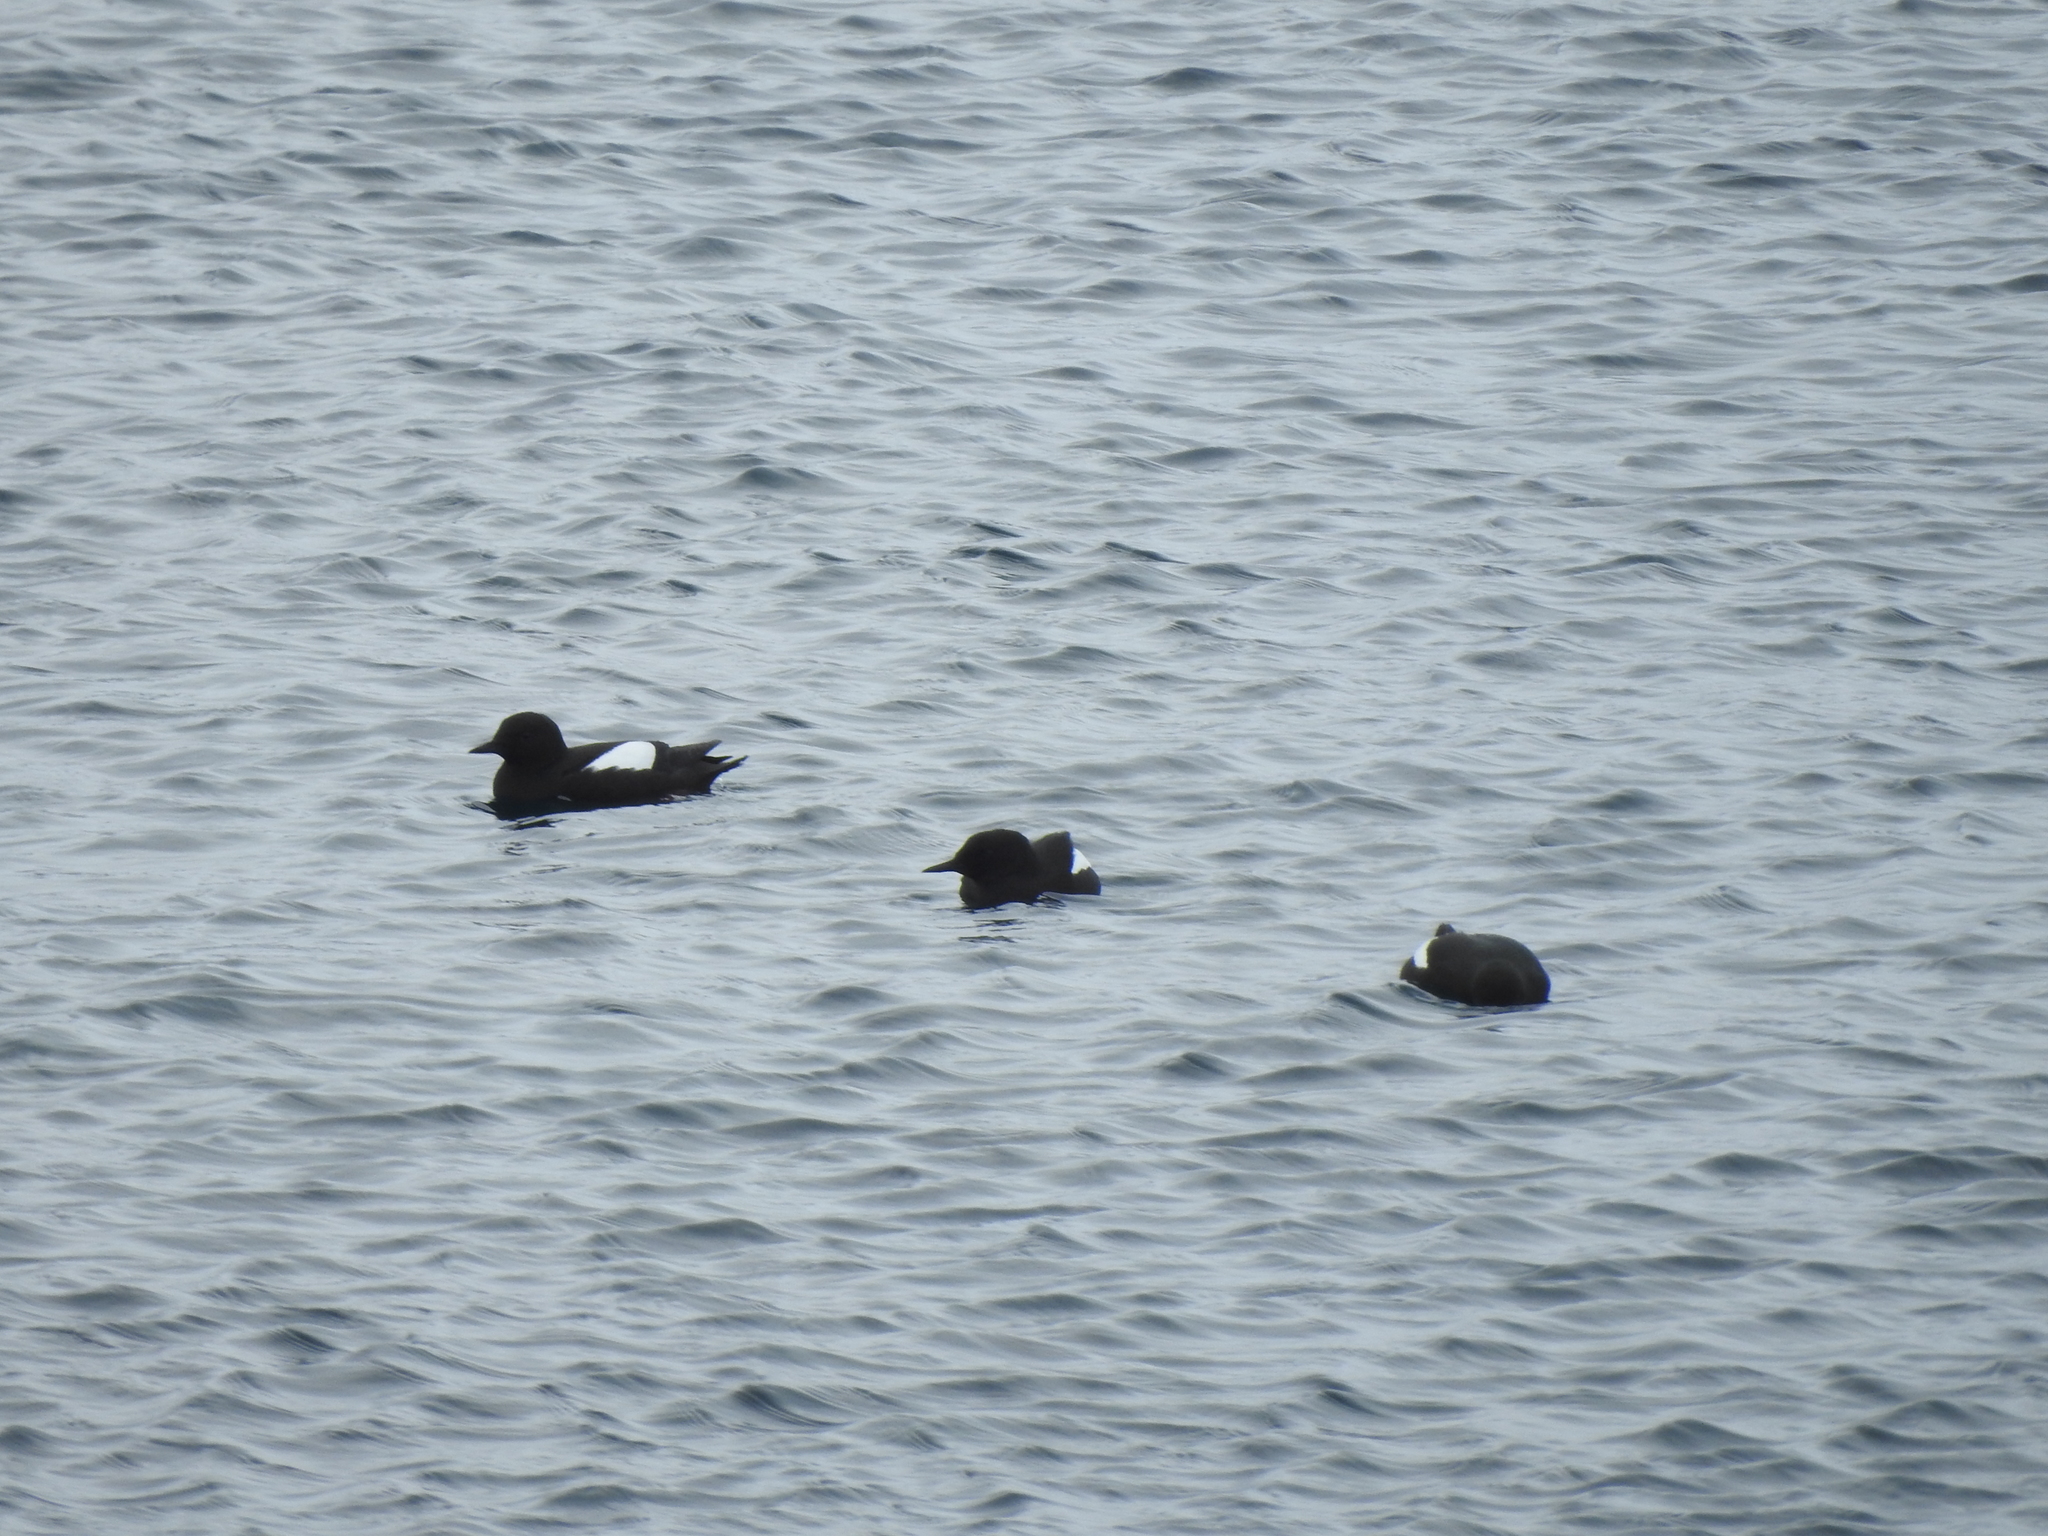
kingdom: Animalia
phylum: Chordata
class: Aves
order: Charadriiformes
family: Alcidae
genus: Cepphus
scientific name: Cepphus grylle
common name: Black guillemot
